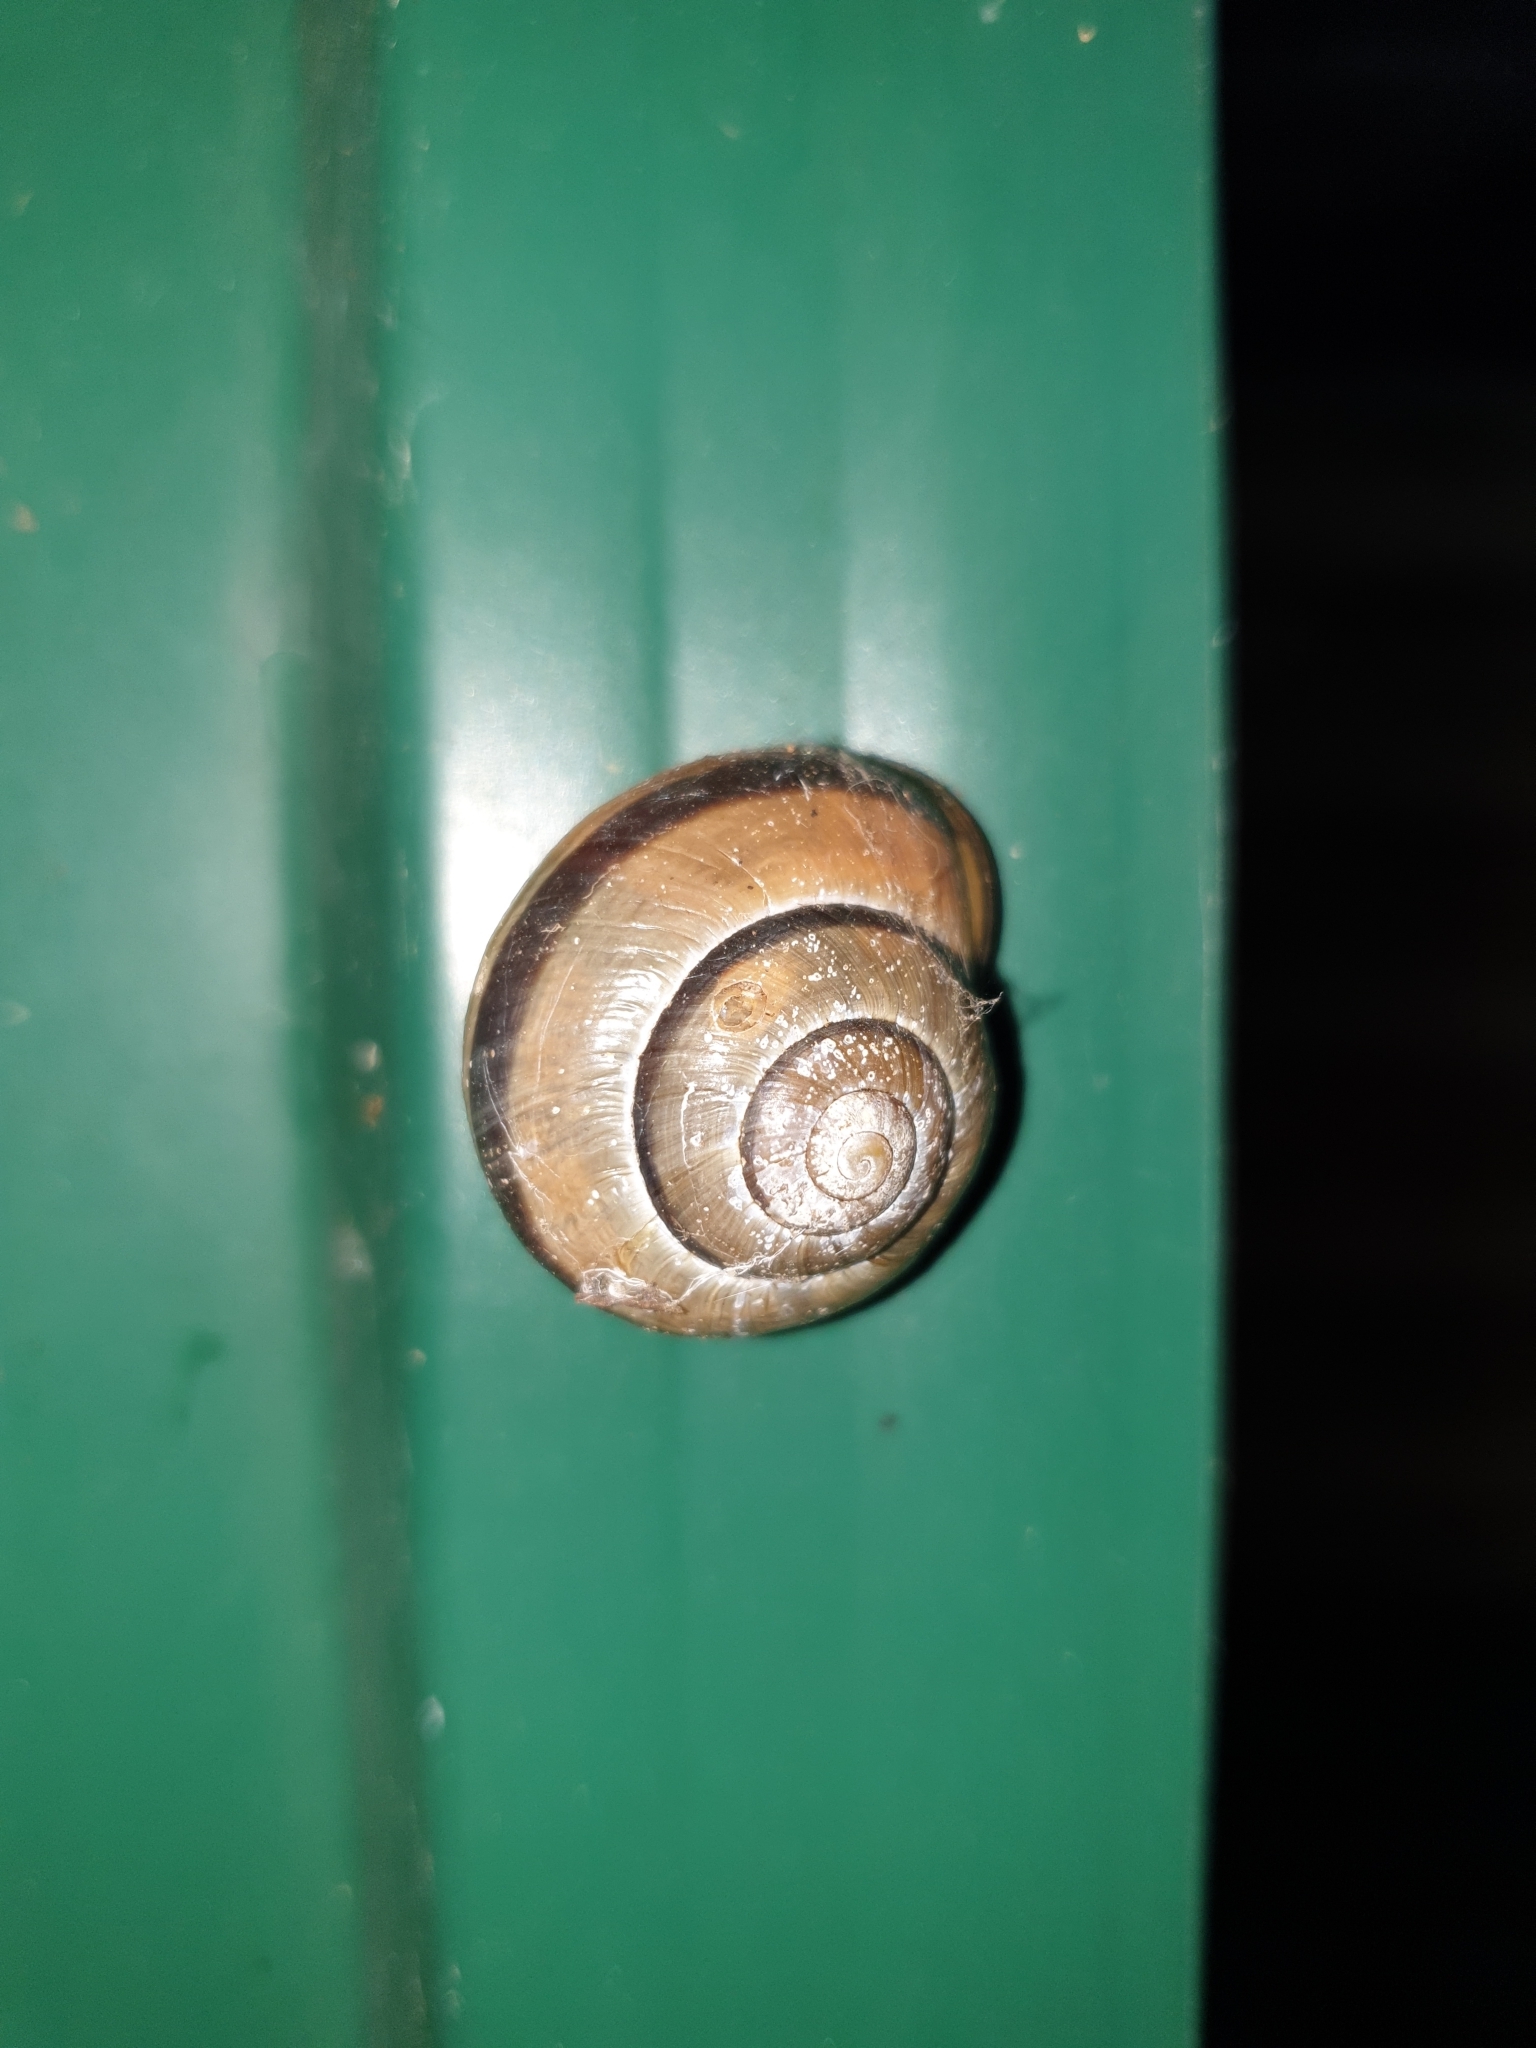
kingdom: Animalia
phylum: Mollusca
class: Gastropoda
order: Stylommatophora
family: Helicidae
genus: Cepaea
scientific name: Cepaea nemoralis
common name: Grovesnail
